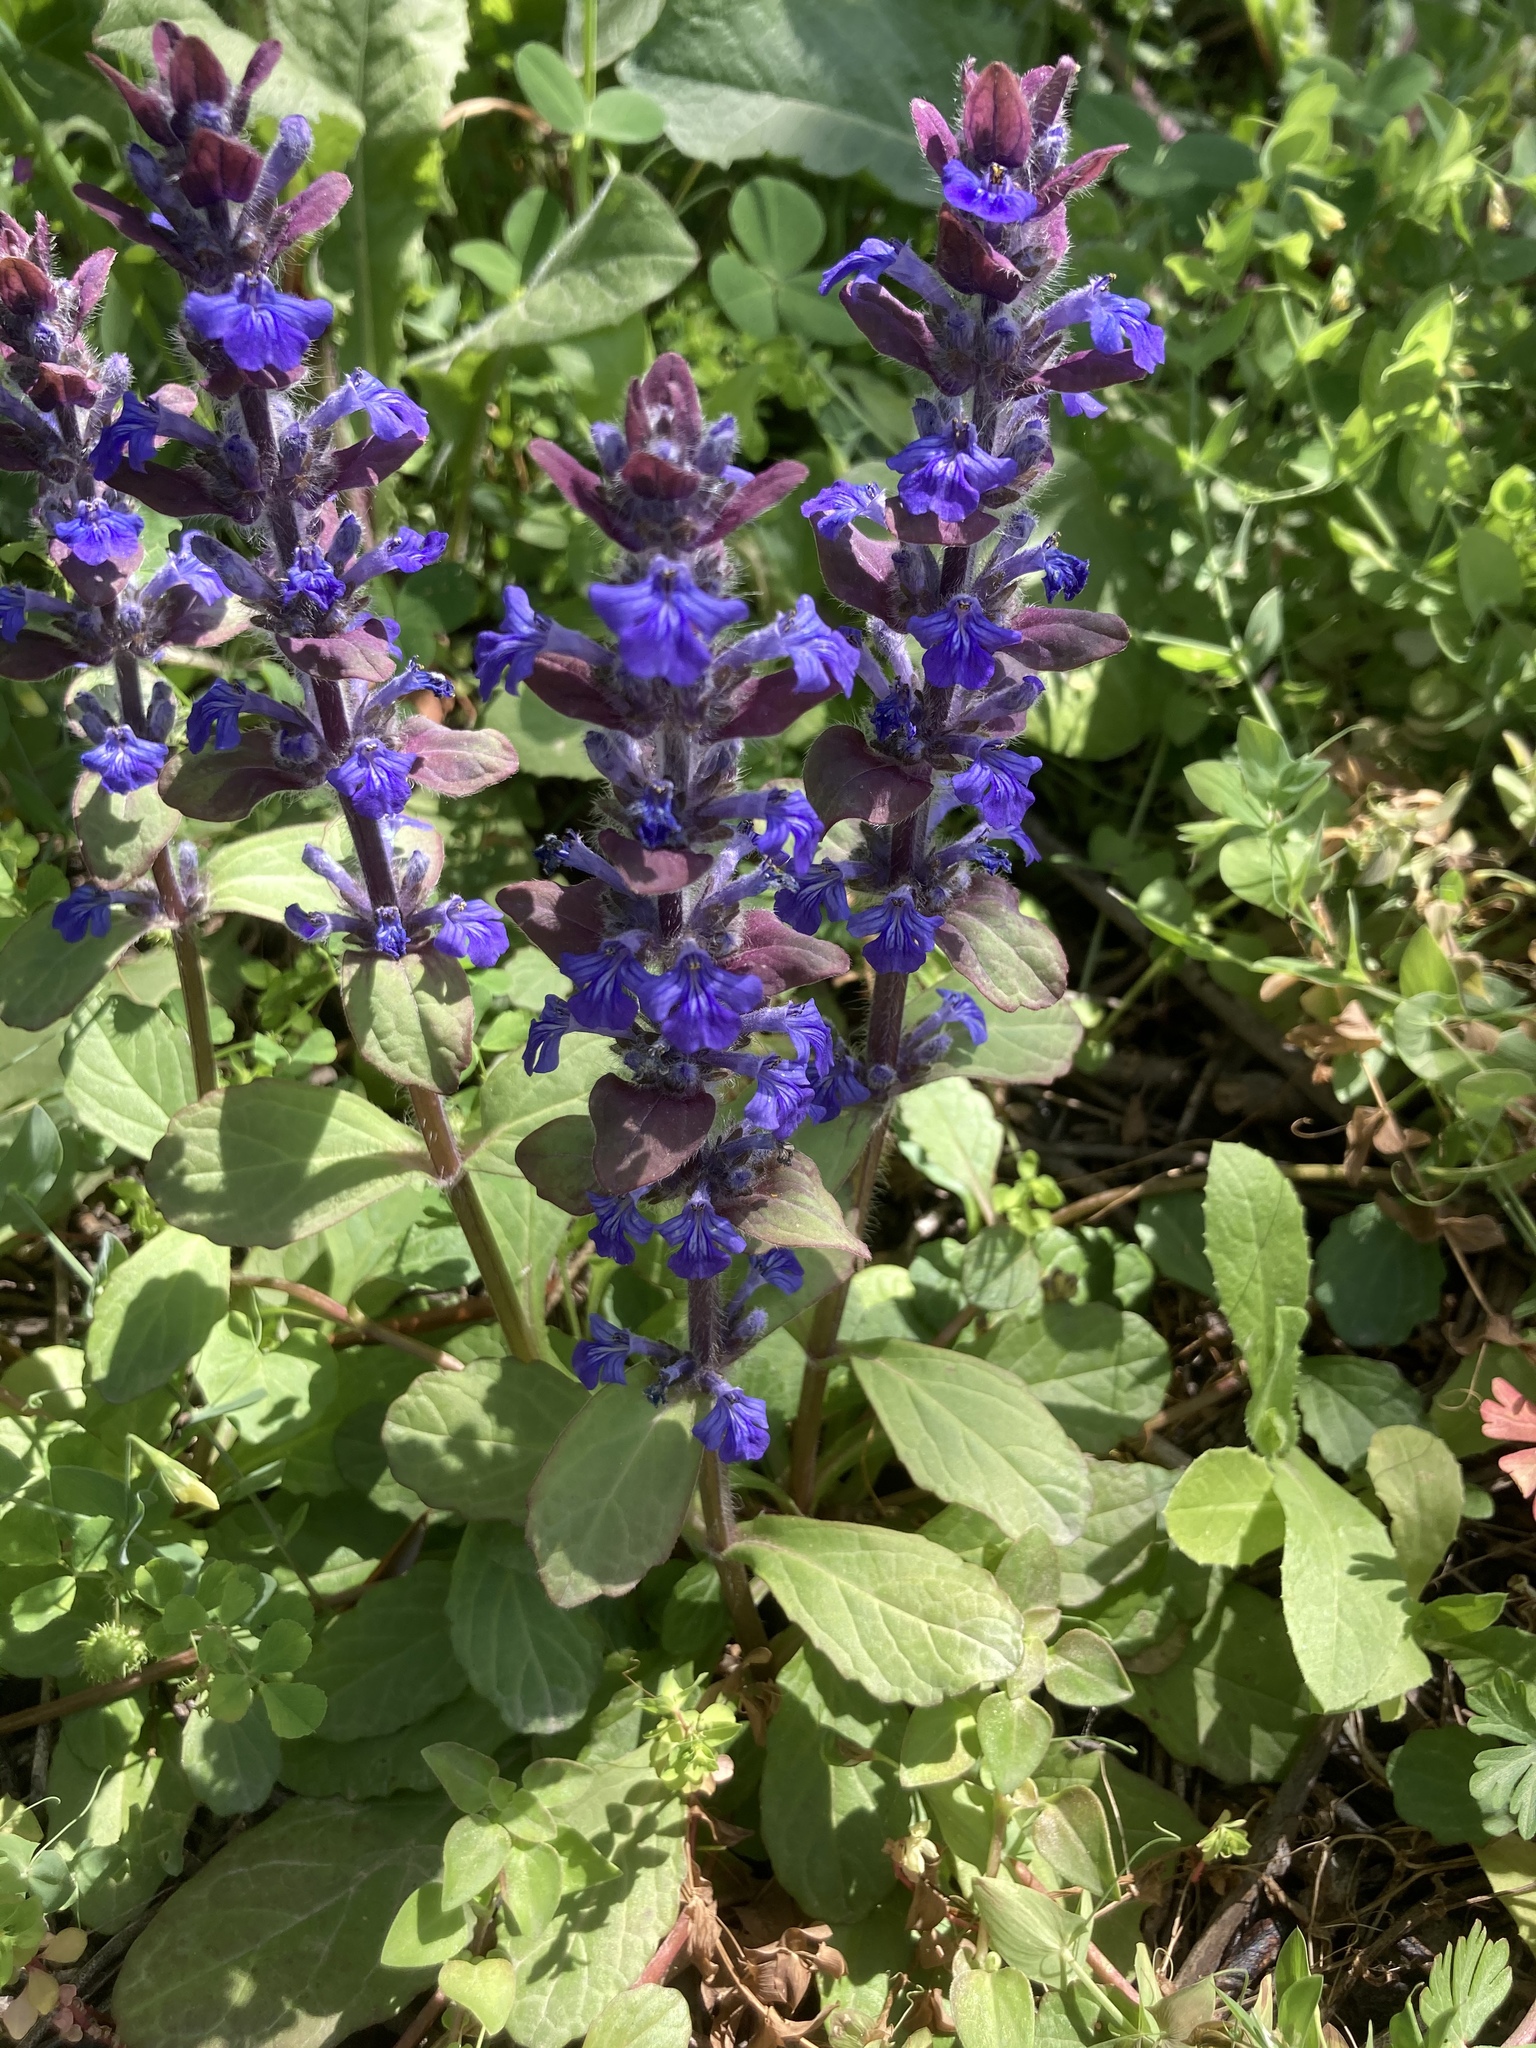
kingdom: Plantae
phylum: Tracheophyta
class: Magnoliopsida
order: Lamiales
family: Lamiaceae
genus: Ajuga
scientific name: Ajuga reptans
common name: Bugle
